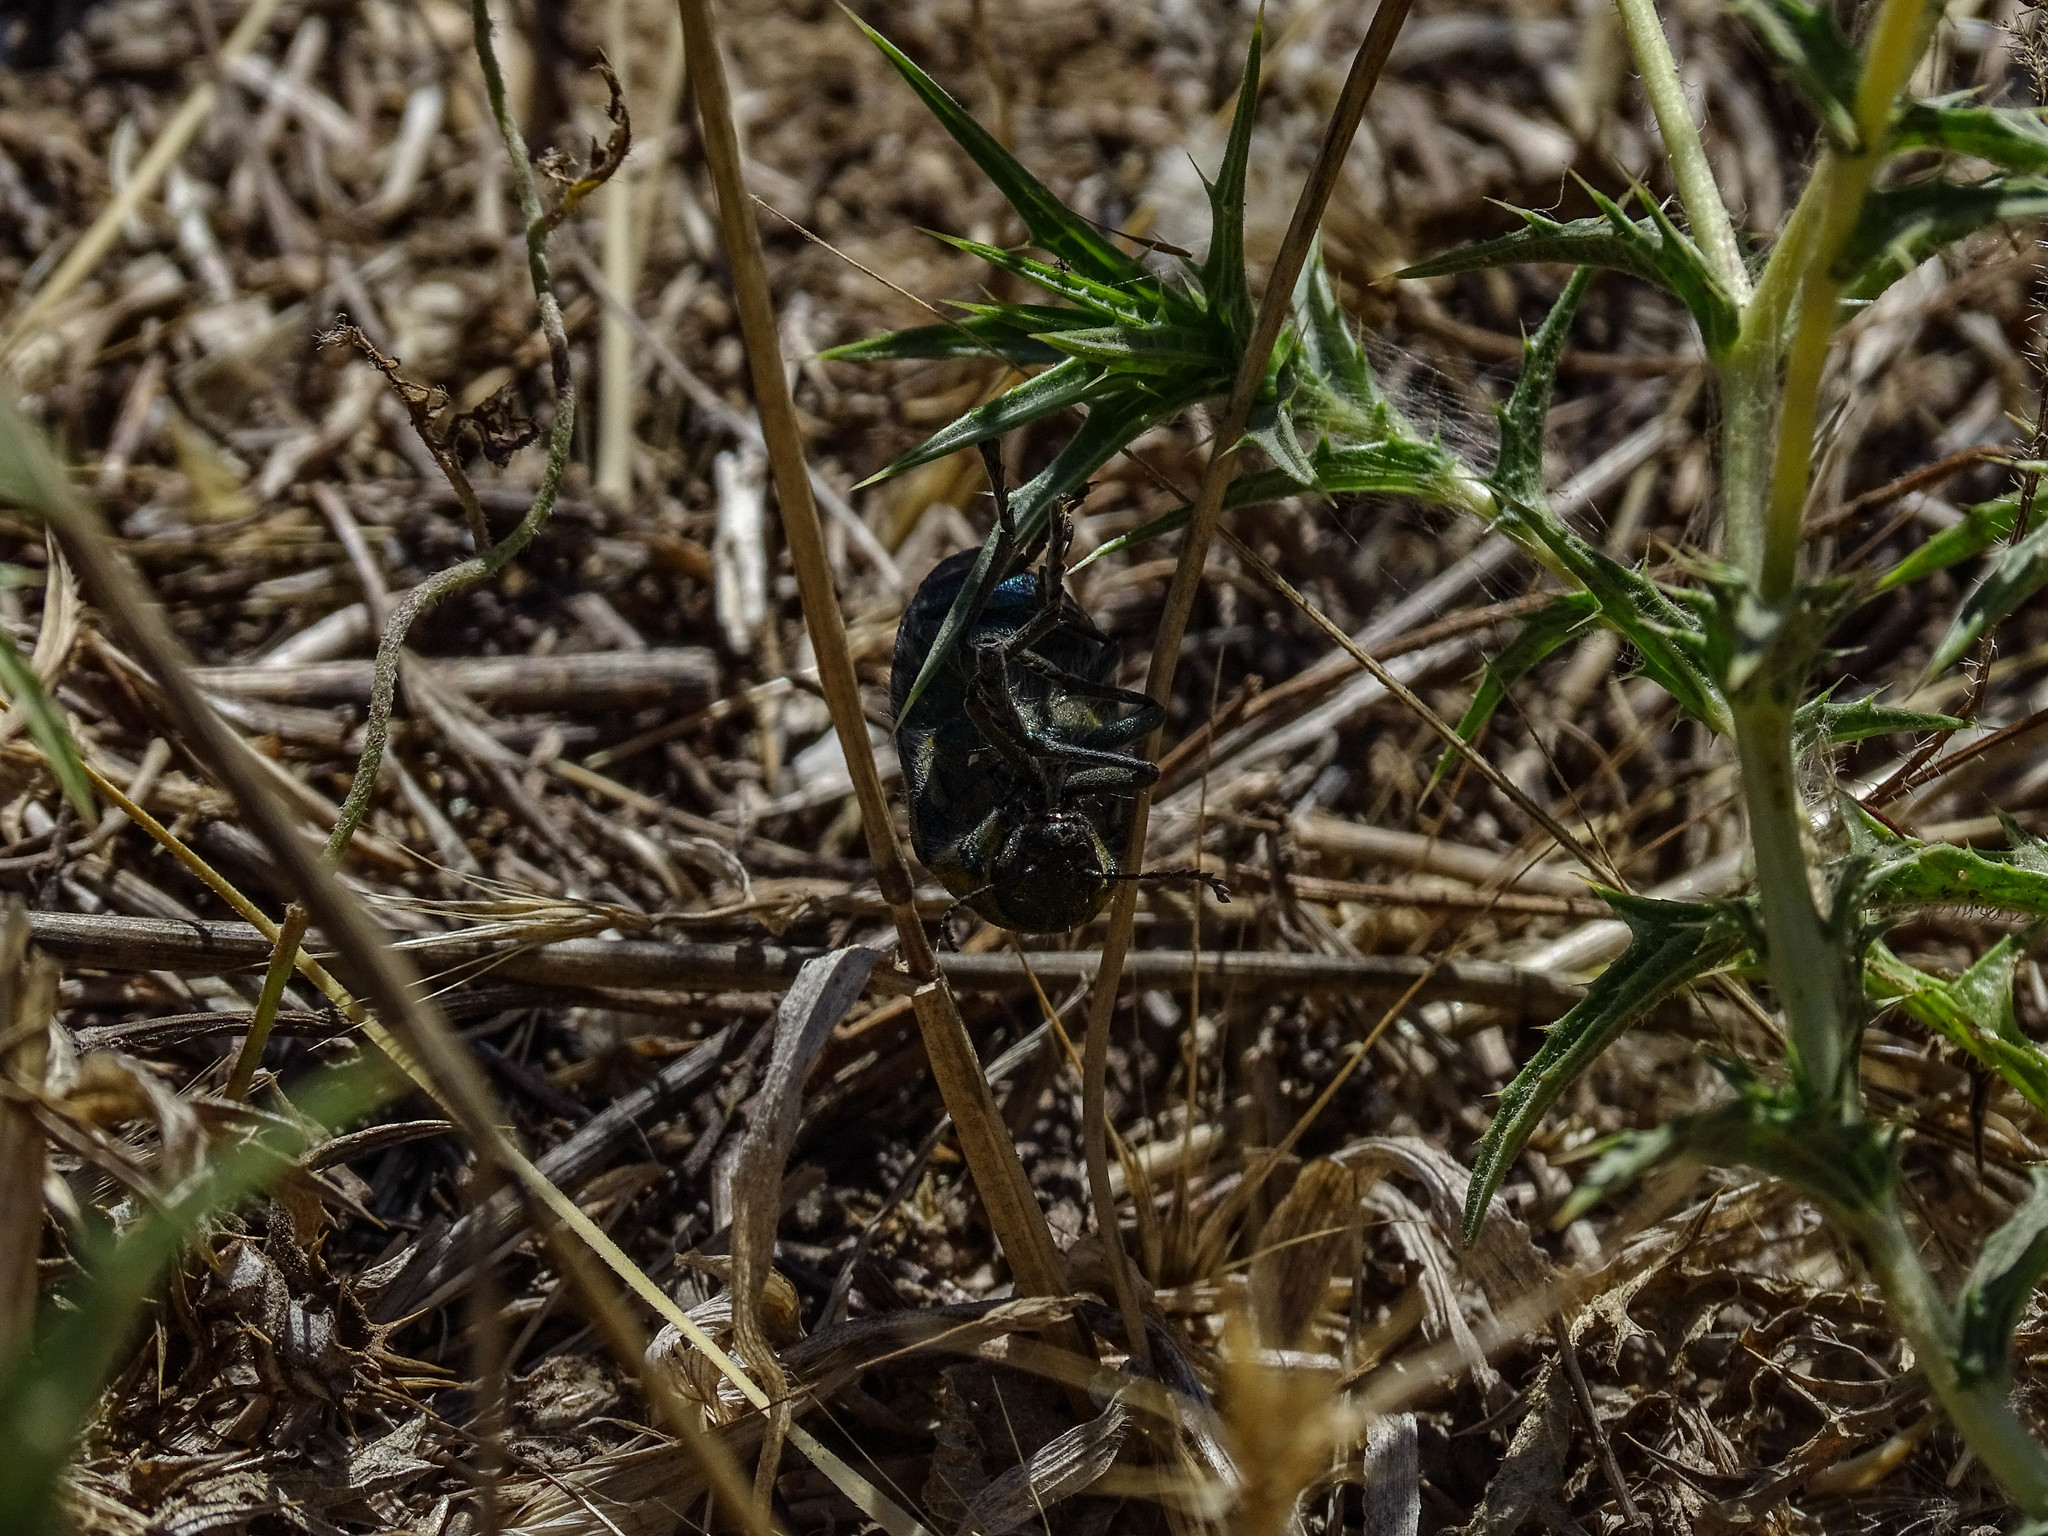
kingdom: Animalia
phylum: Arthropoda
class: Insecta
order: Coleoptera
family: Buprestidae
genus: Julodis
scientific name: Julodis ehrenbergii
